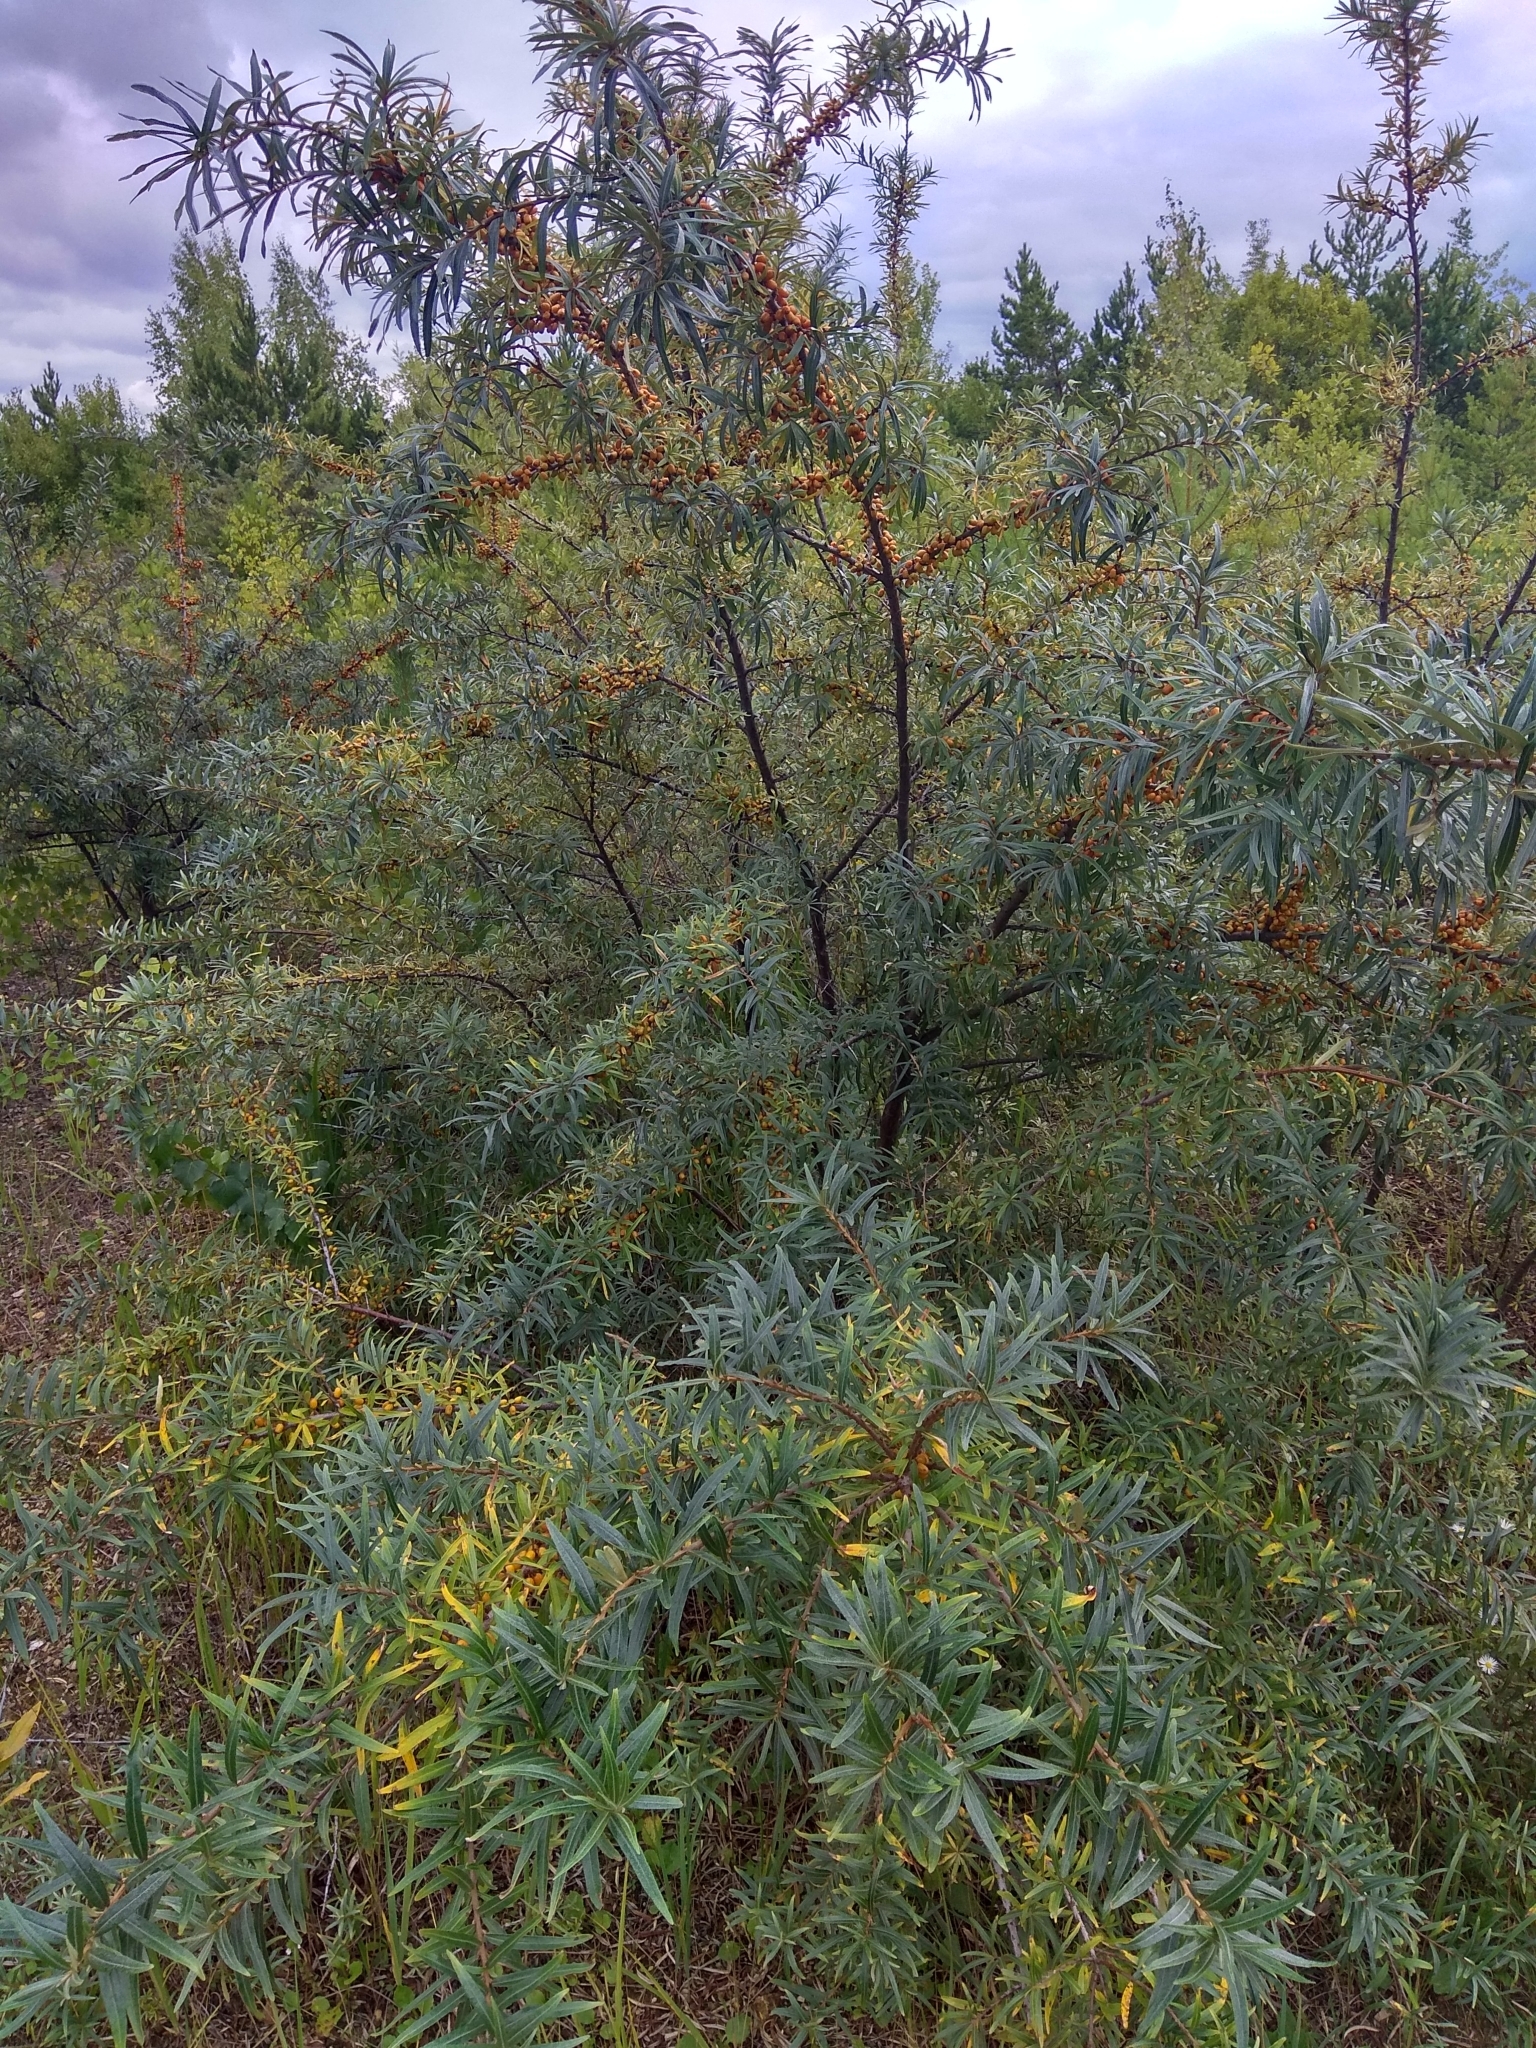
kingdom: Plantae
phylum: Tracheophyta
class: Magnoliopsida
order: Rosales
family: Elaeagnaceae
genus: Hippophae
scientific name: Hippophae rhamnoides
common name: Sea-buckthorn
